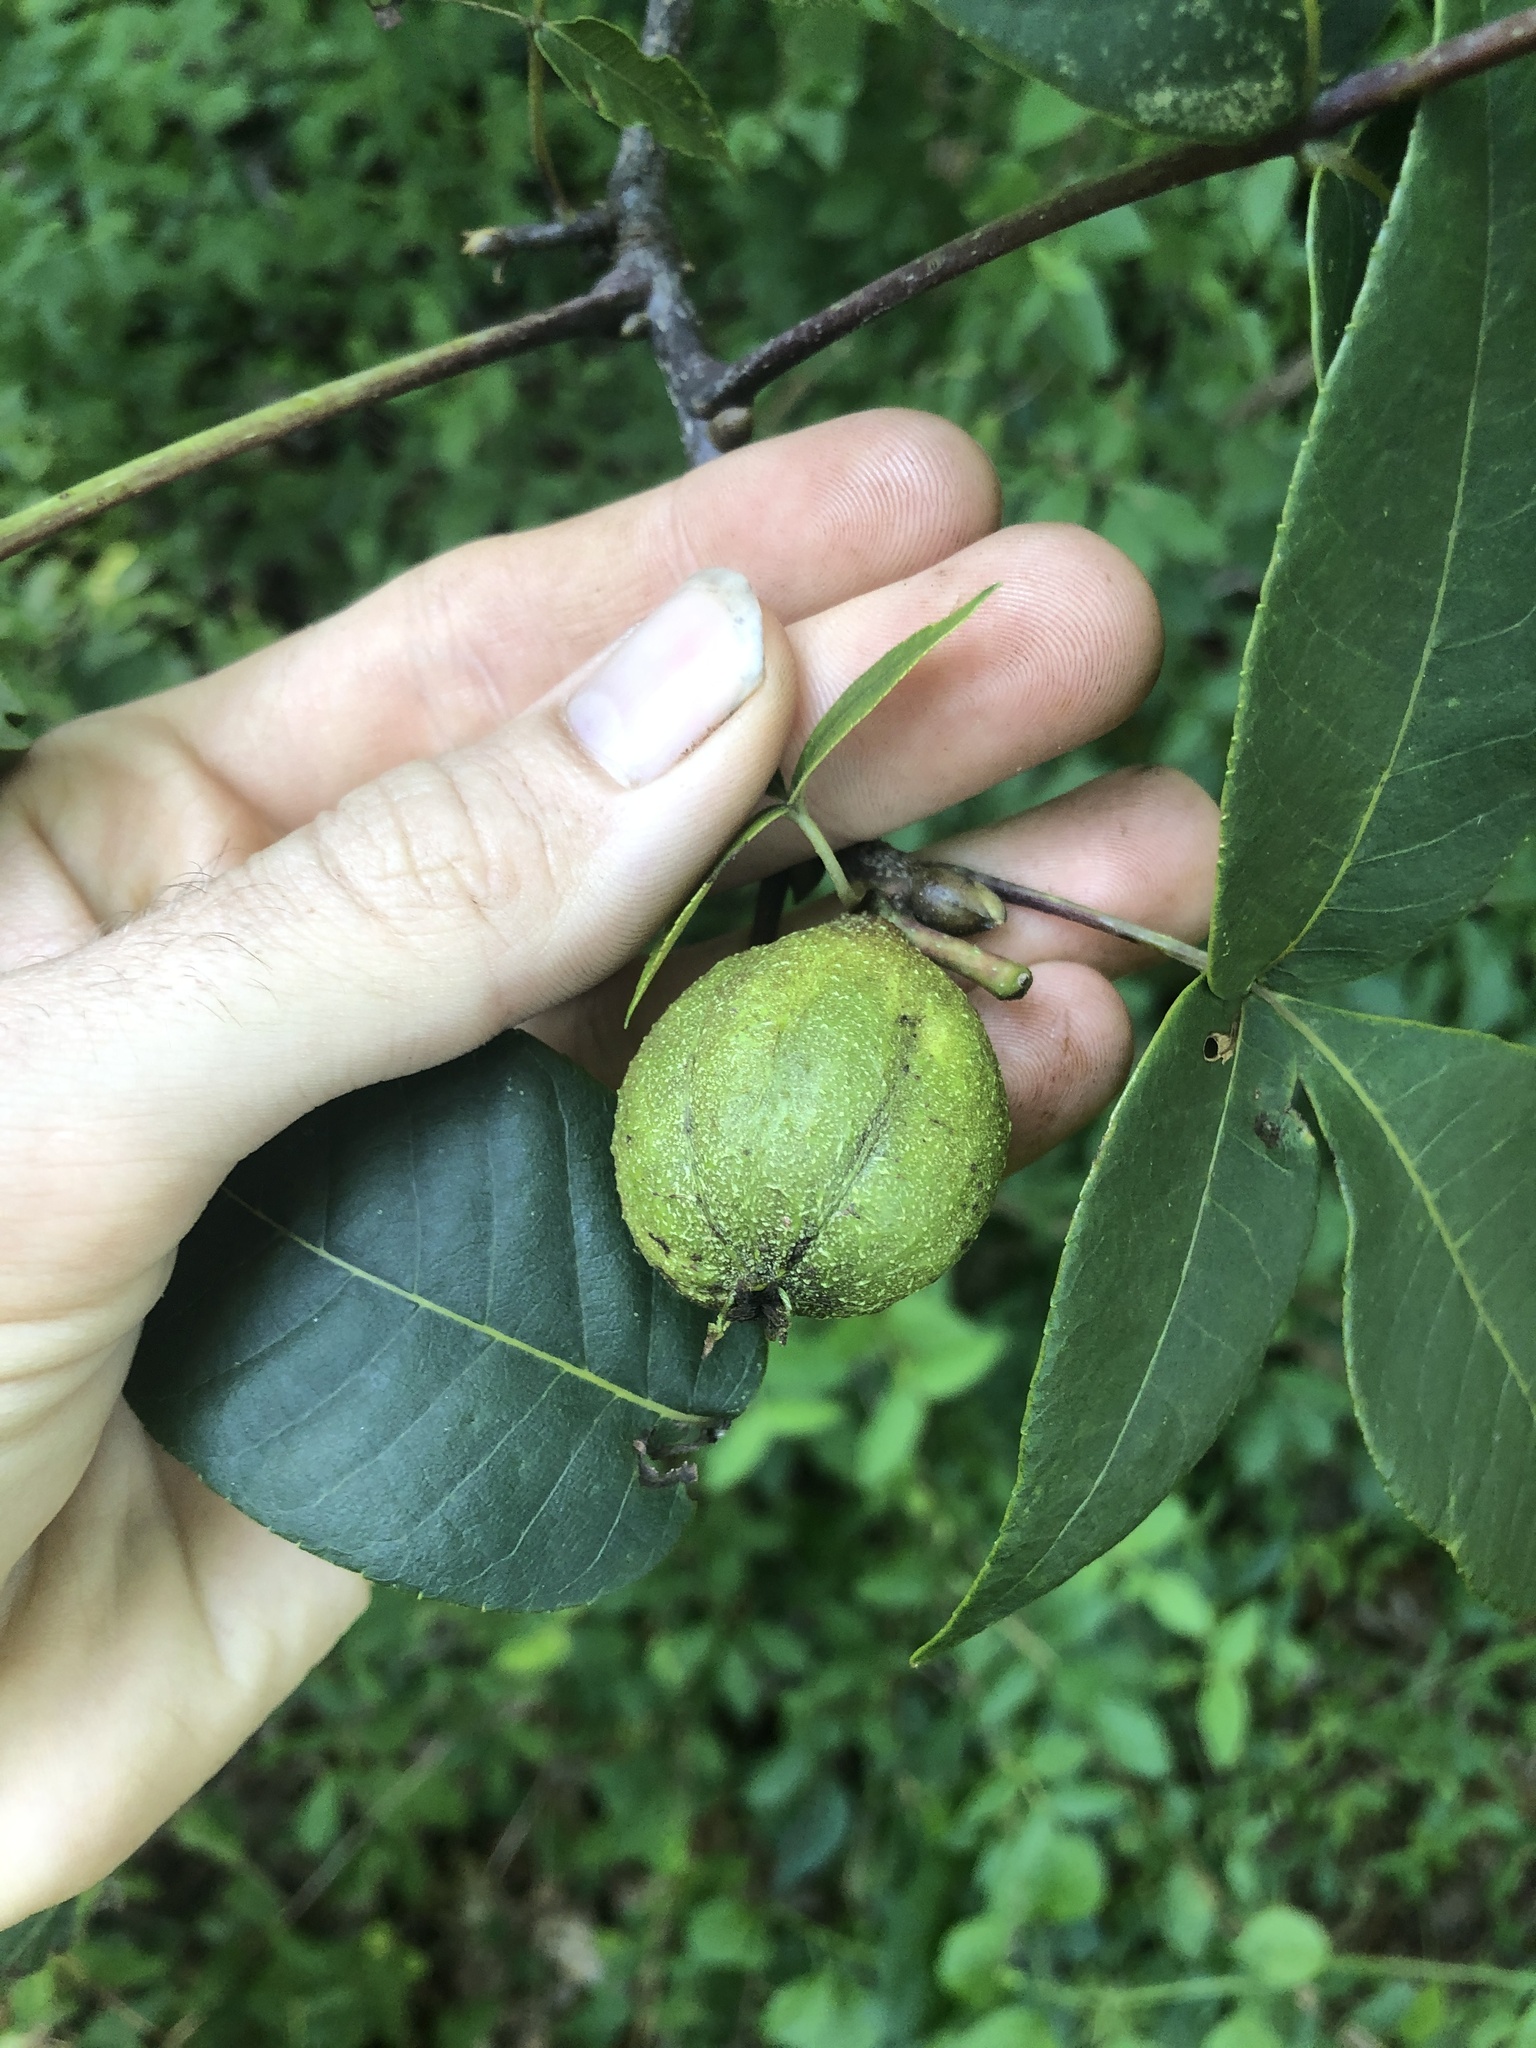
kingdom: Plantae
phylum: Tracheophyta
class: Magnoliopsida
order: Fagales
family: Juglandaceae
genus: Carya
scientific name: Carya ovalis
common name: False shagbark
